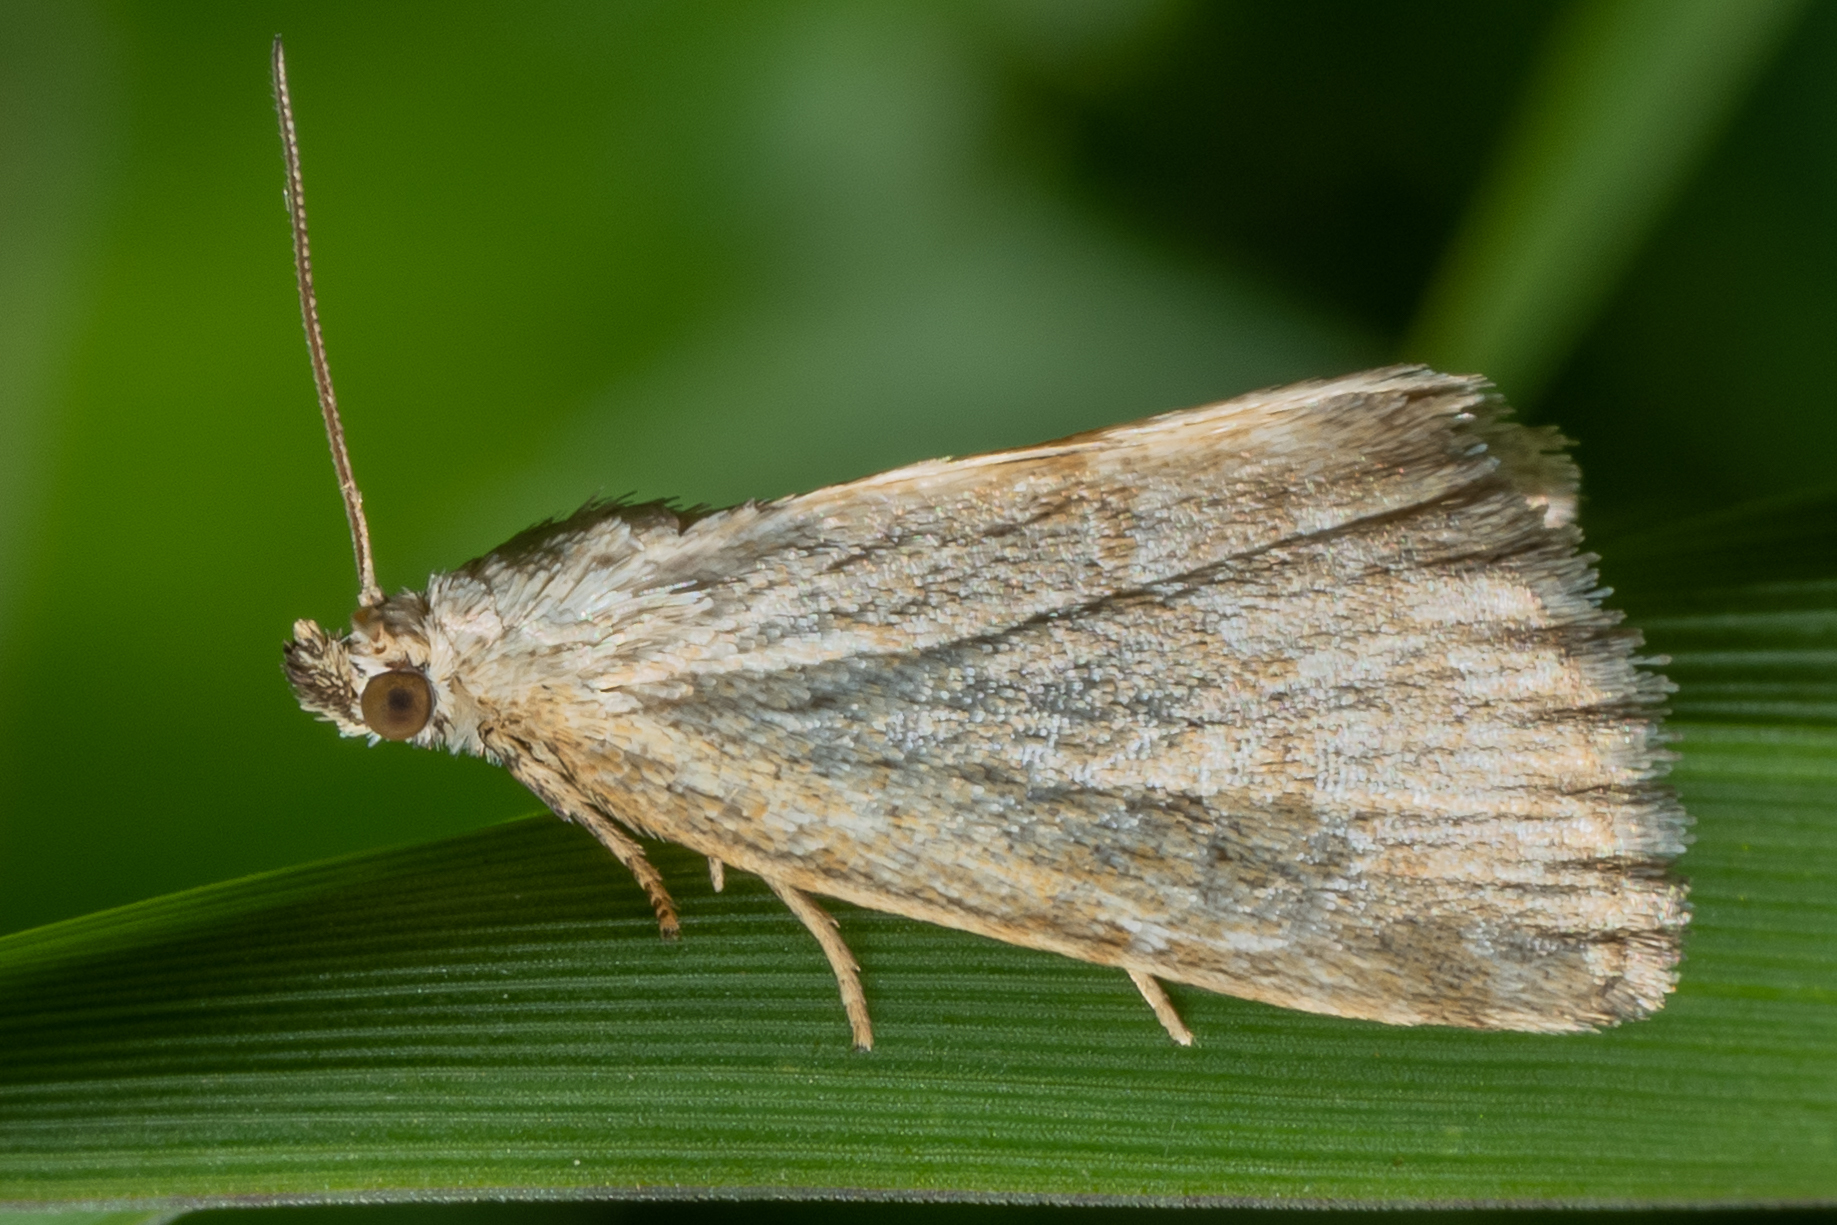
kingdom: Animalia
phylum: Arthropoda
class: Insecta
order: Lepidoptera
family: Noctuidae
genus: Protodeltote
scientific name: Protodeltote albidula
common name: Pale glyph
